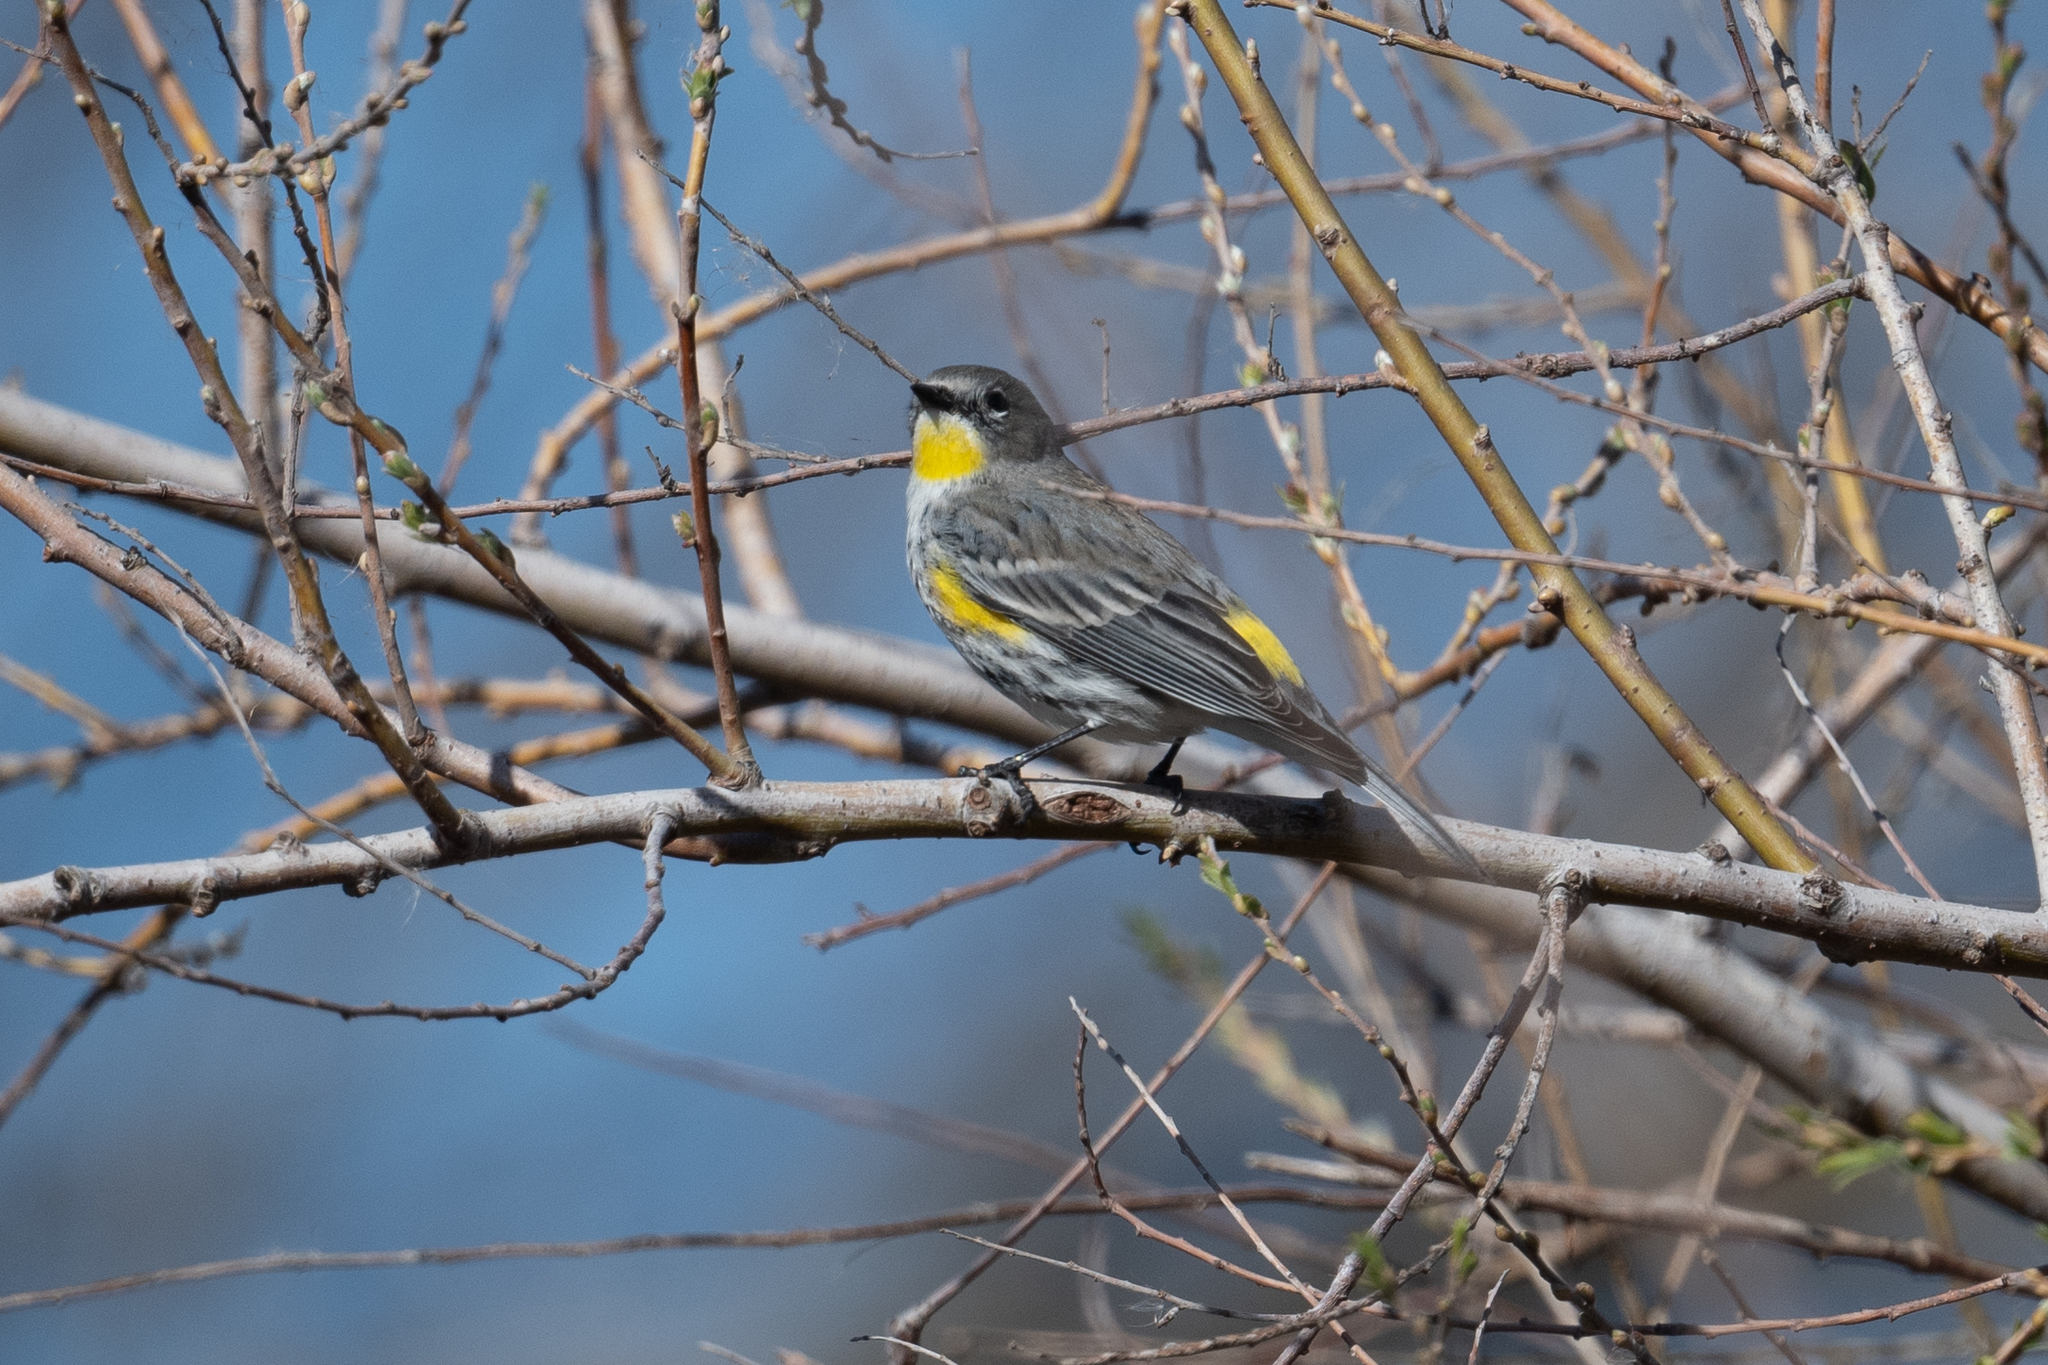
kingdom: Animalia
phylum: Chordata
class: Aves
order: Passeriformes
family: Parulidae
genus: Setophaga
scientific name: Setophaga coronata
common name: Myrtle warbler
